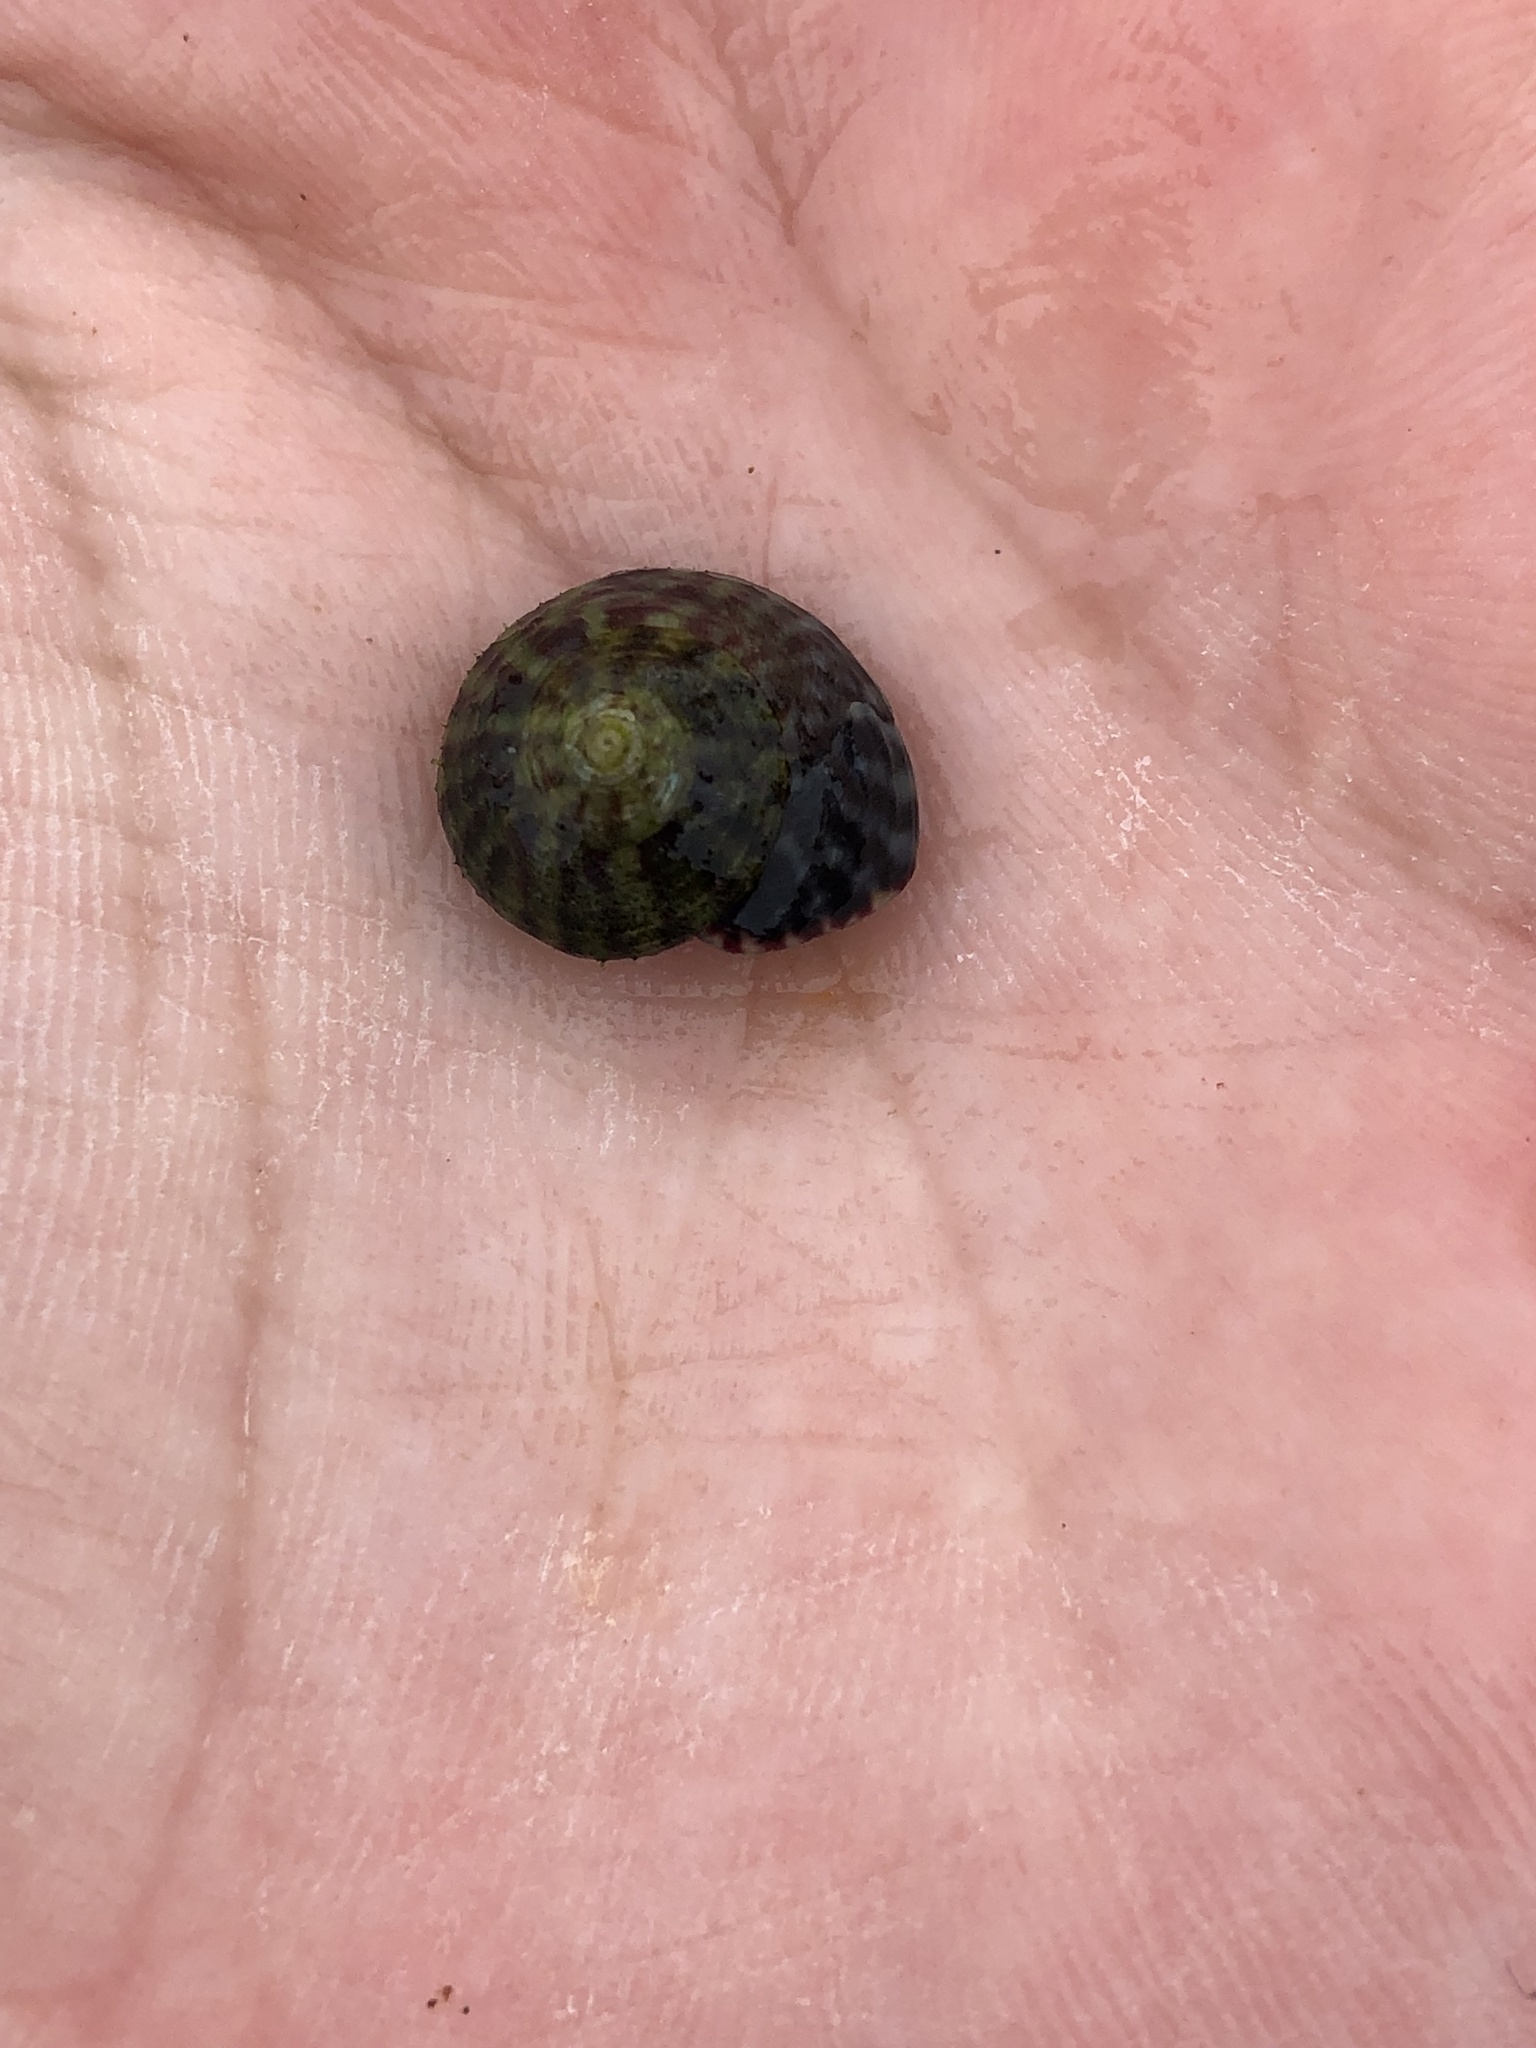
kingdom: Animalia
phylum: Mollusca
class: Gastropoda
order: Trochida
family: Trochidae
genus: Steromphala
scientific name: Steromphala umbilicalis
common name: Flat top shell
